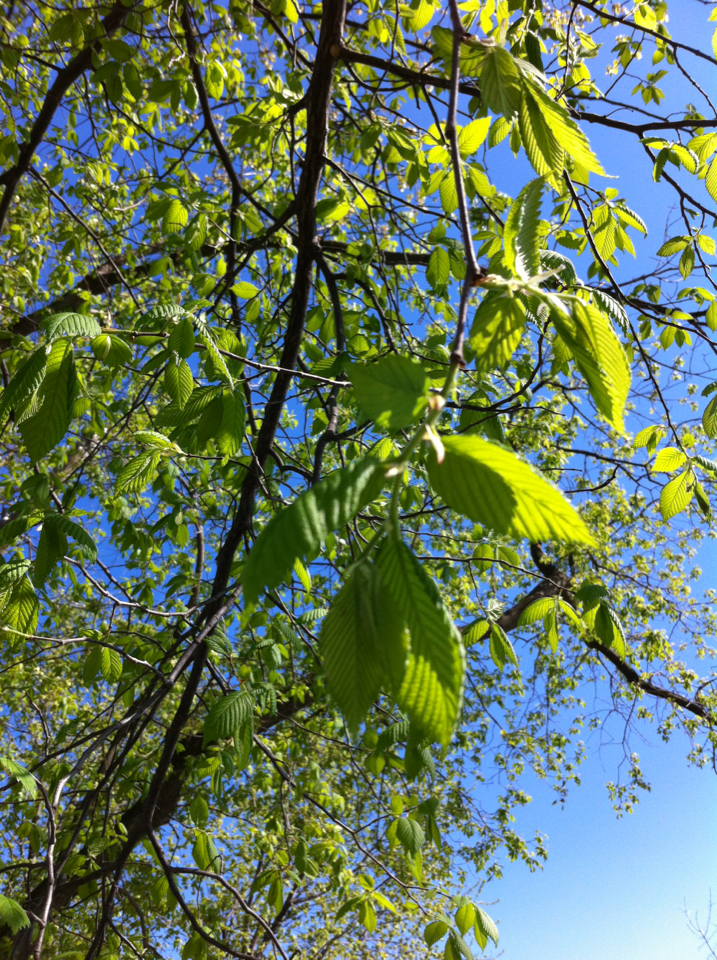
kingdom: Plantae
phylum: Tracheophyta
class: Magnoliopsida
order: Rosales
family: Ulmaceae
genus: Ulmus
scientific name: Ulmus americana
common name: American elm
